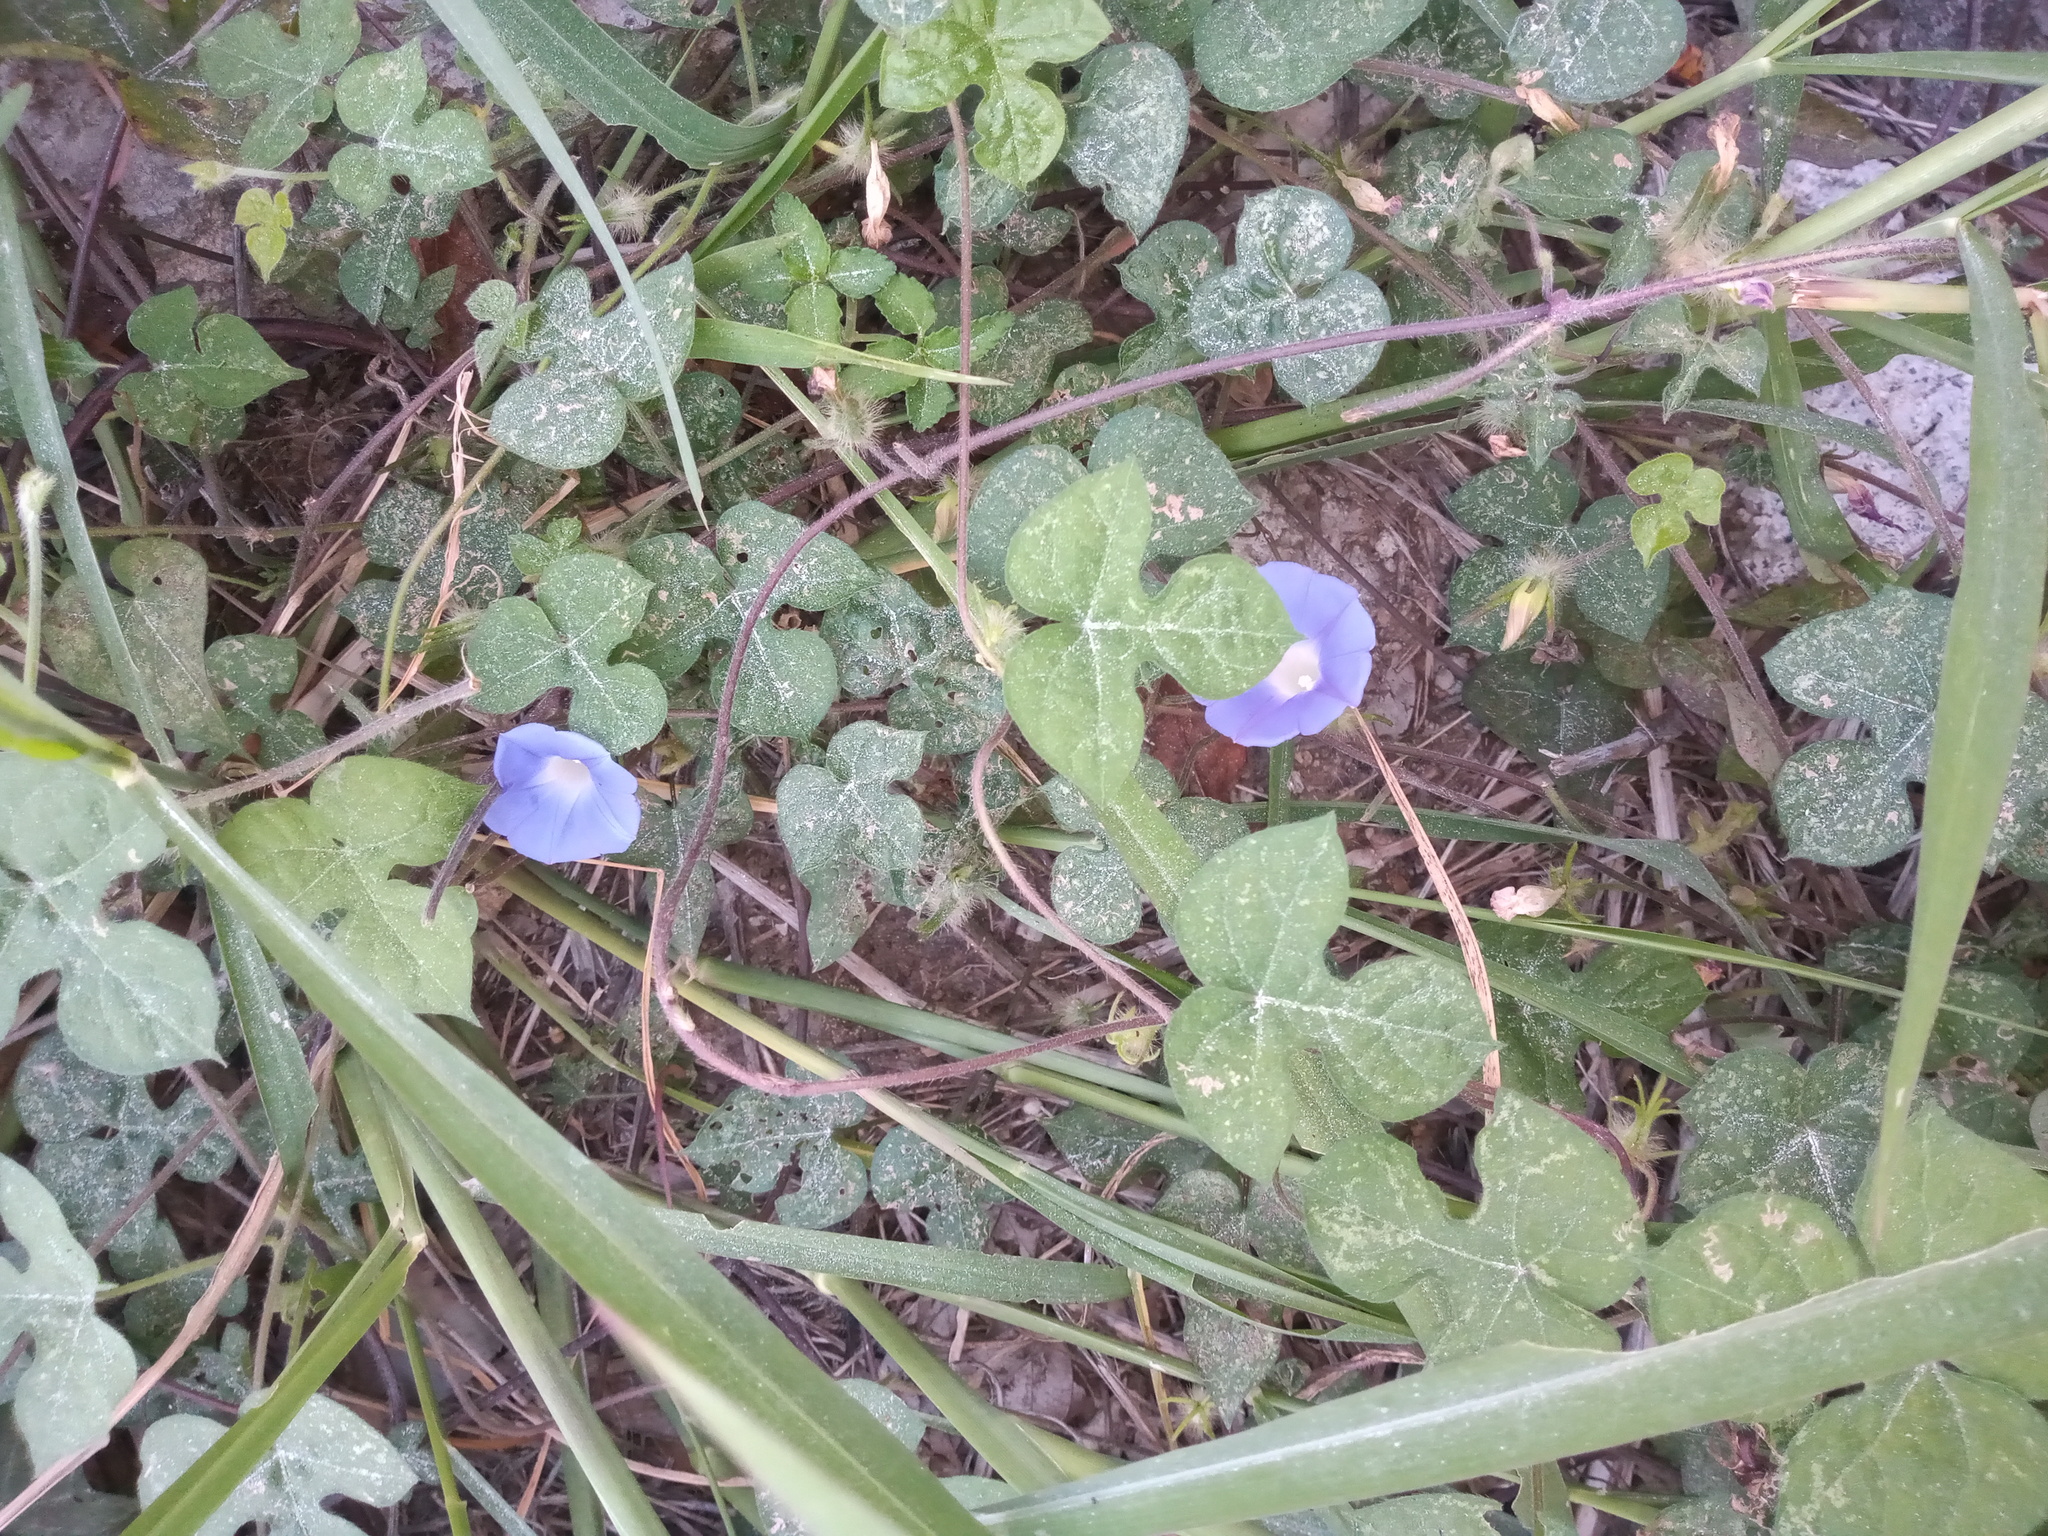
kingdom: Plantae
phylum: Tracheophyta
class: Magnoliopsida
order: Solanales
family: Convolvulaceae
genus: Ipomoea
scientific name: Ipomoea nil
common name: Japanese morning-glory
